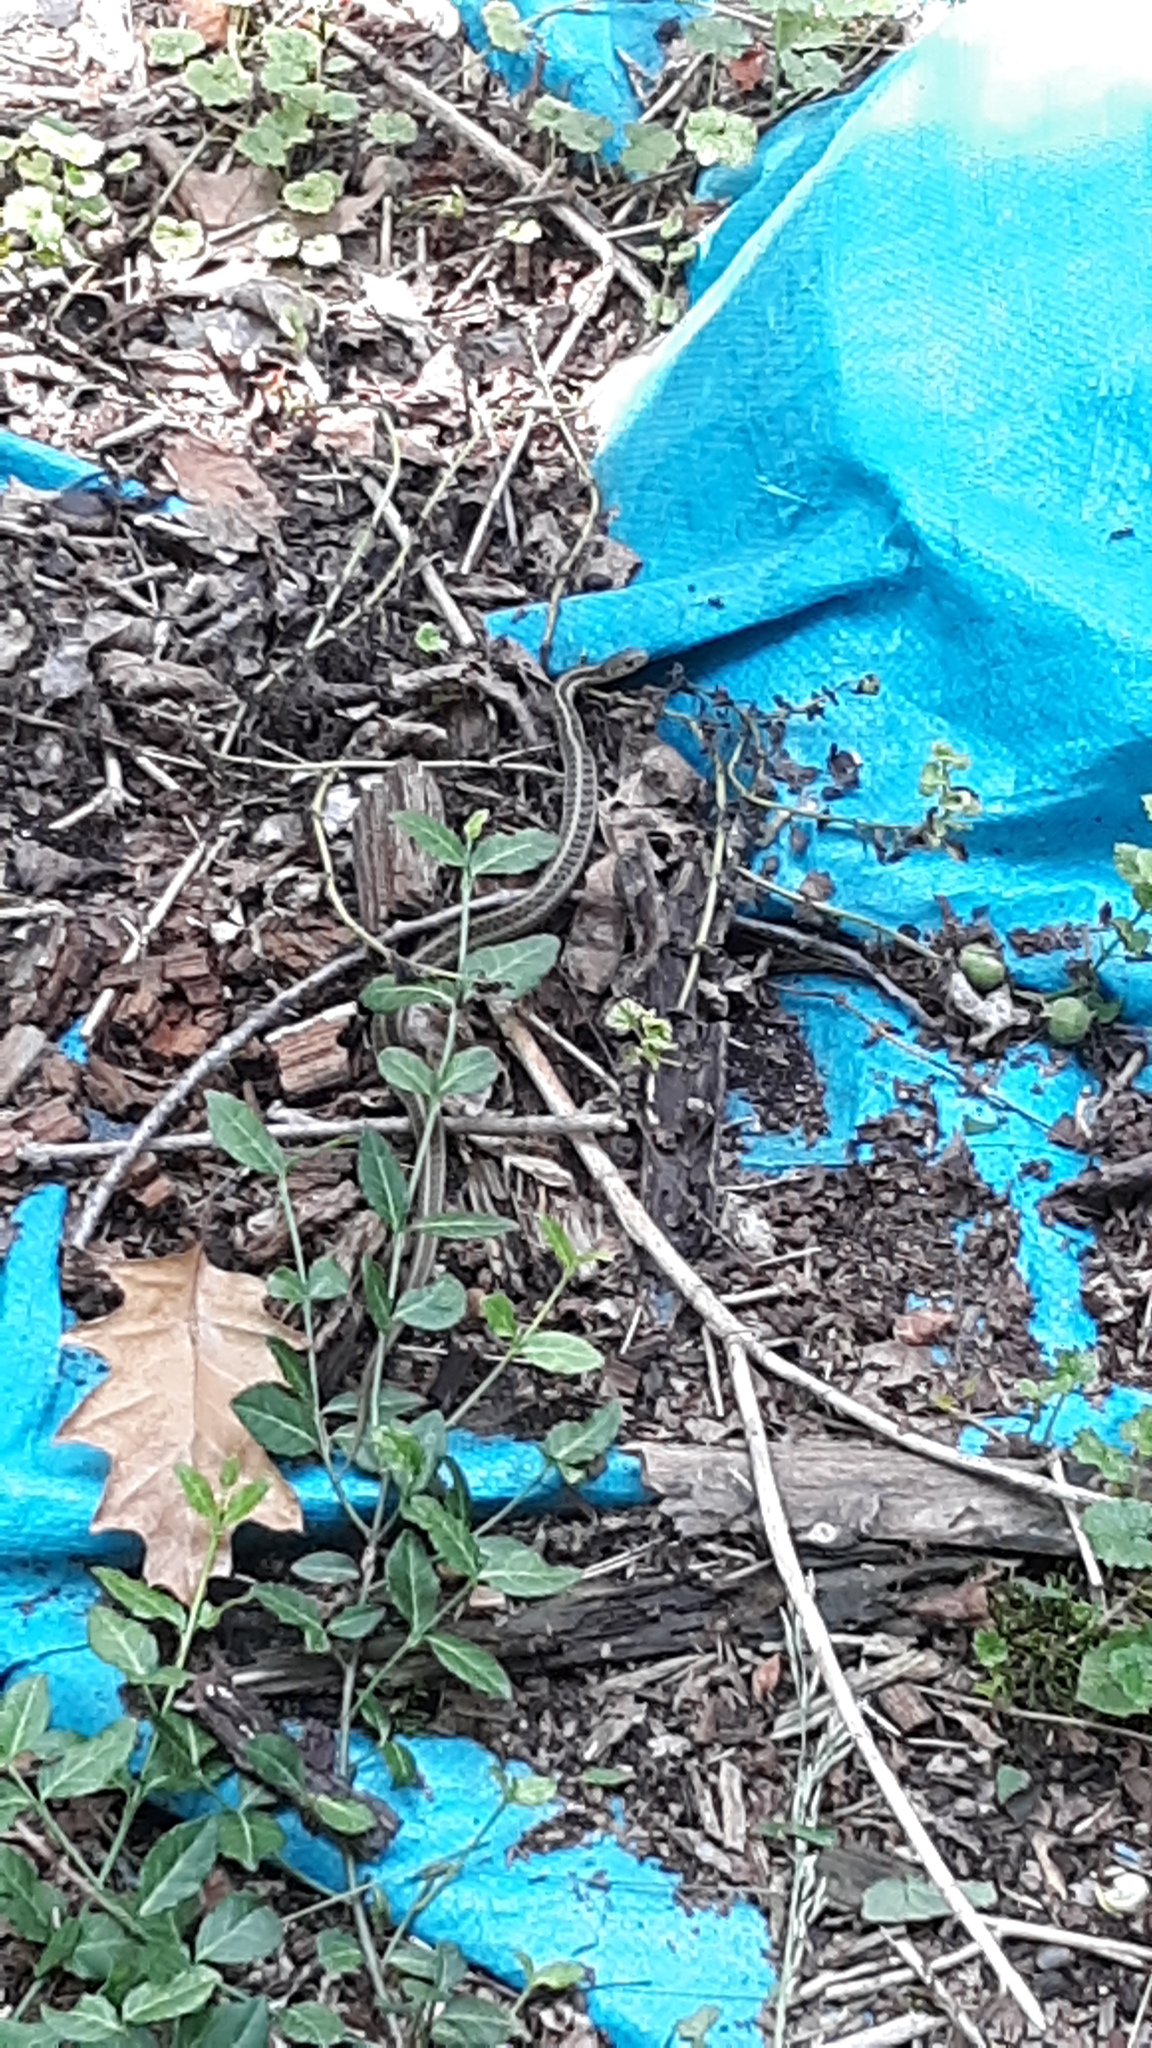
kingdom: Animalia
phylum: Chordata
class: Squamata
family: Colubridae
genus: Thamnophis
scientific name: Thamnophis sirtalis
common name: Common garter snake
